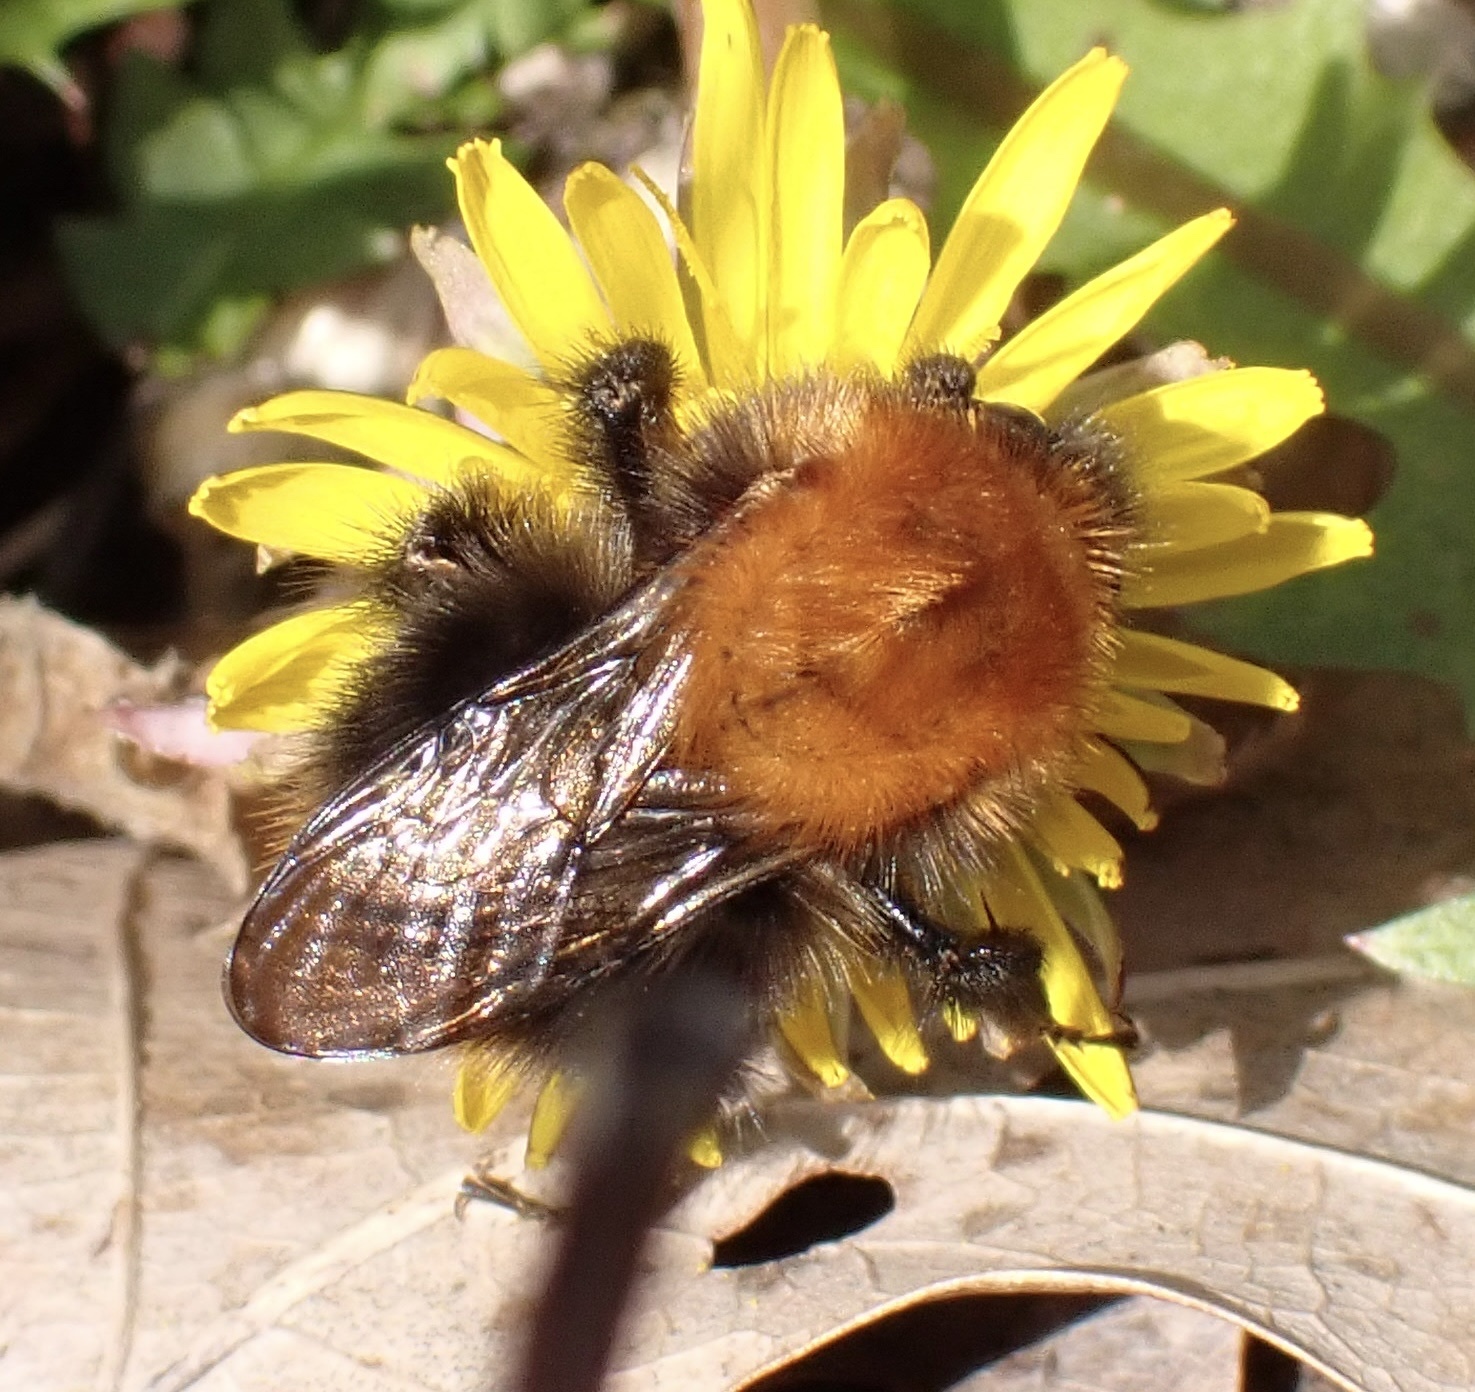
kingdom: Animalia
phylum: Arthropoda
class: Insecta
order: Hymenoptera
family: Apidae
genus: Bombus
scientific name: Bombus pascuorum
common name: Common carder bee
